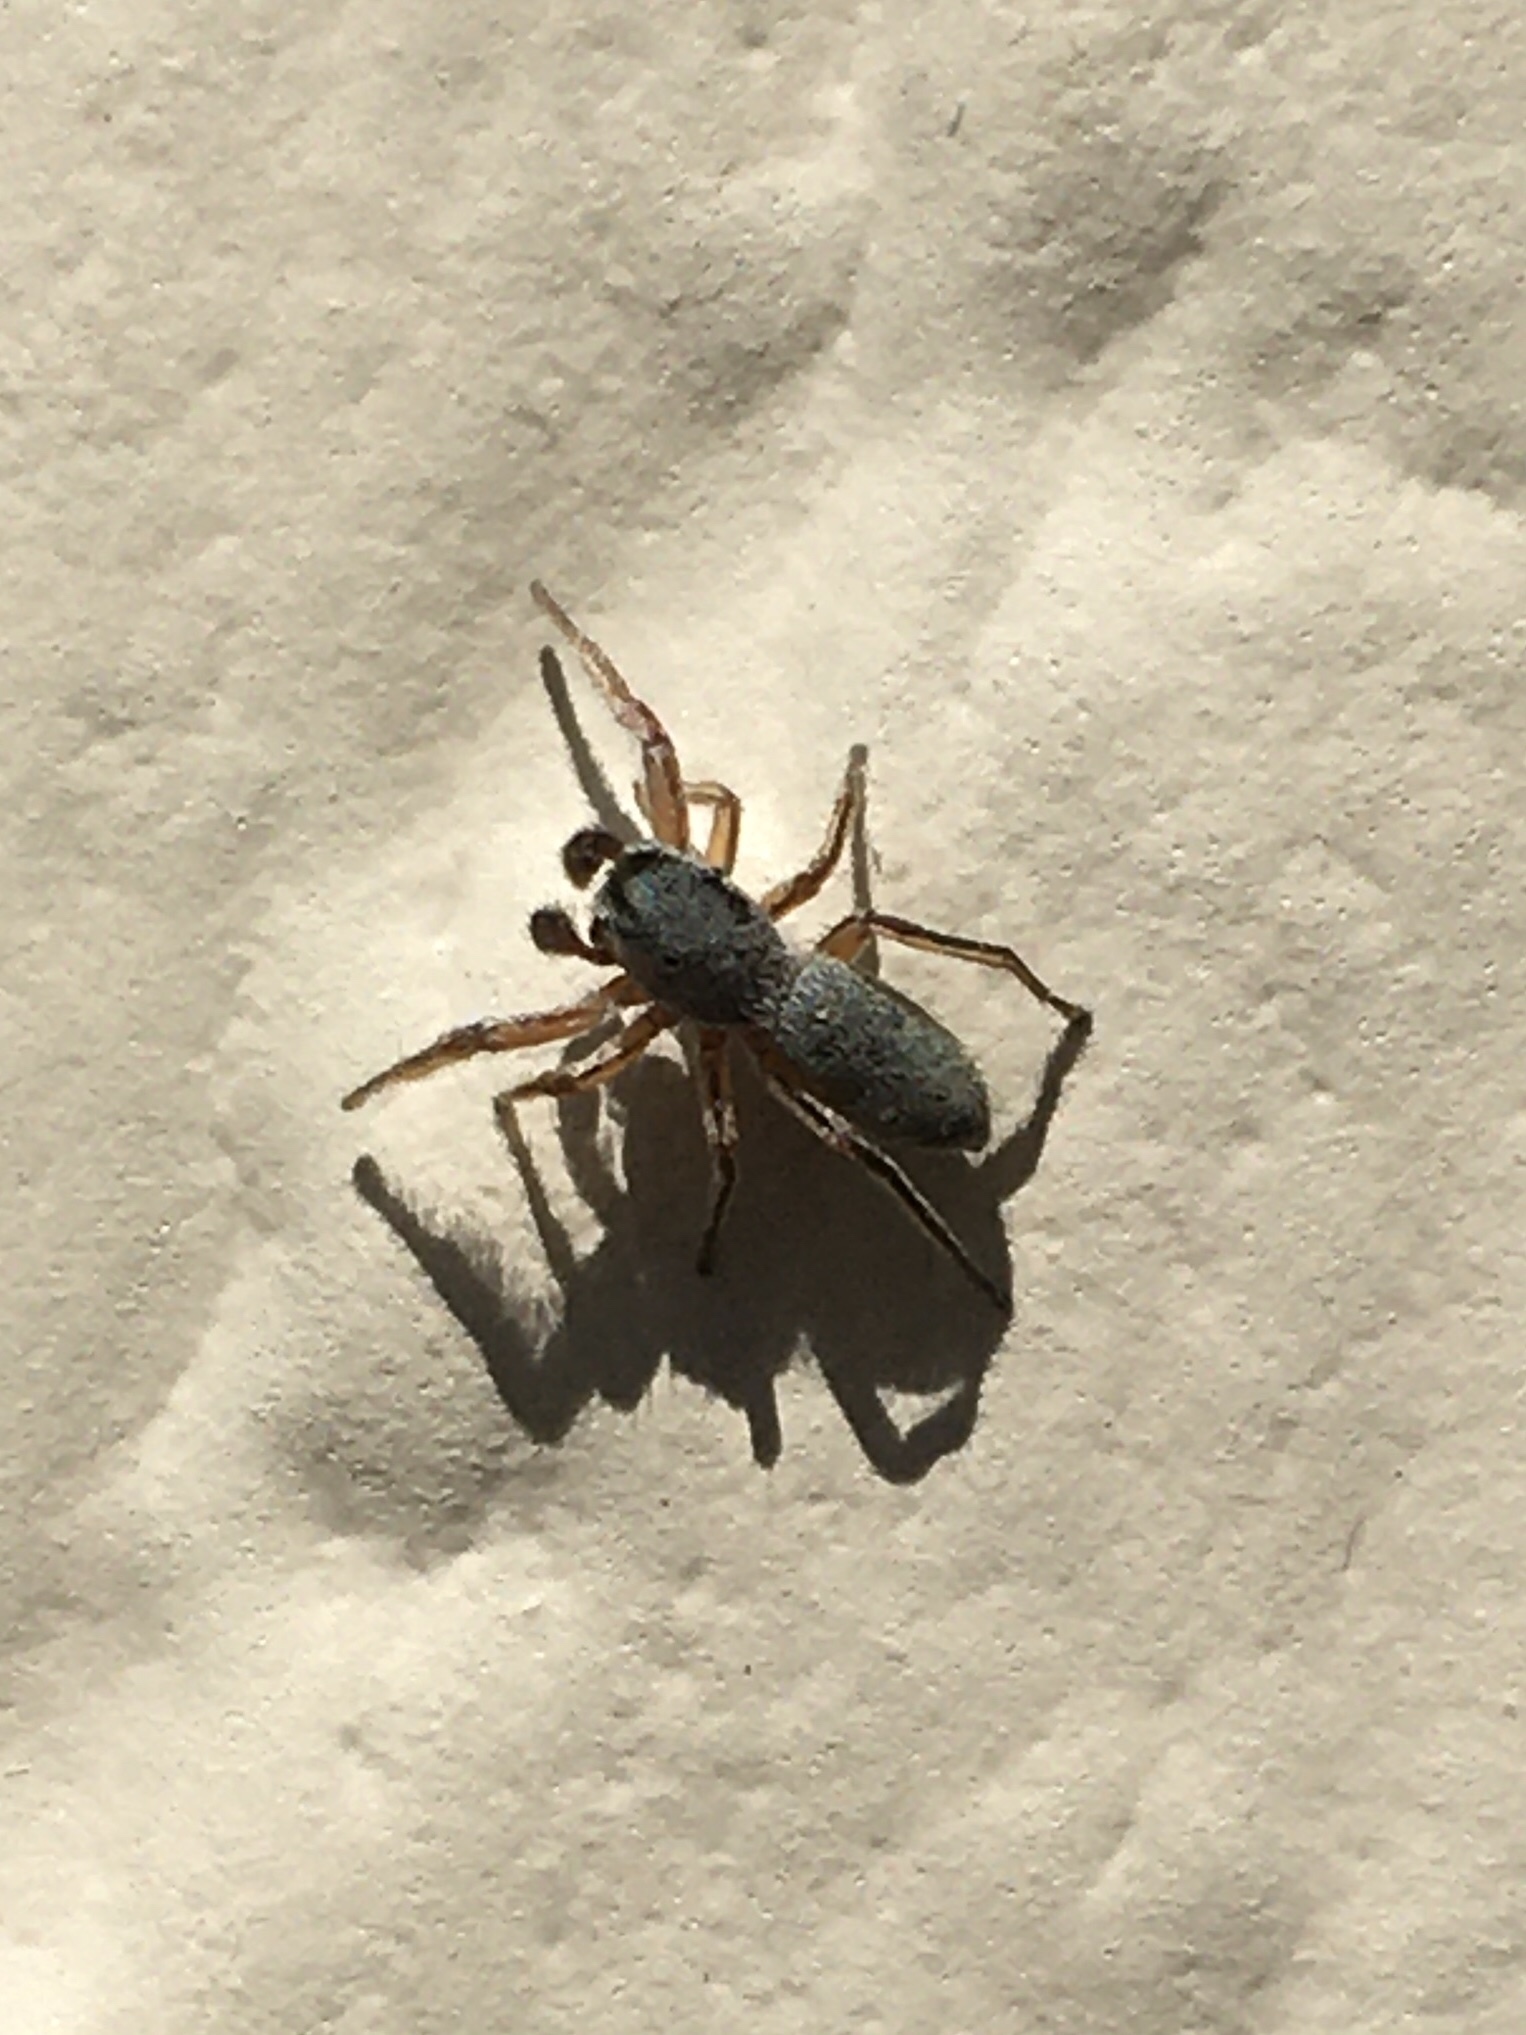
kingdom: Animalia
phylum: Arthropoda
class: Arachnida
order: Araneae
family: Salticidae
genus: Tutelina
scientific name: Tutelina similis
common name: Thick-spined jumping spider
